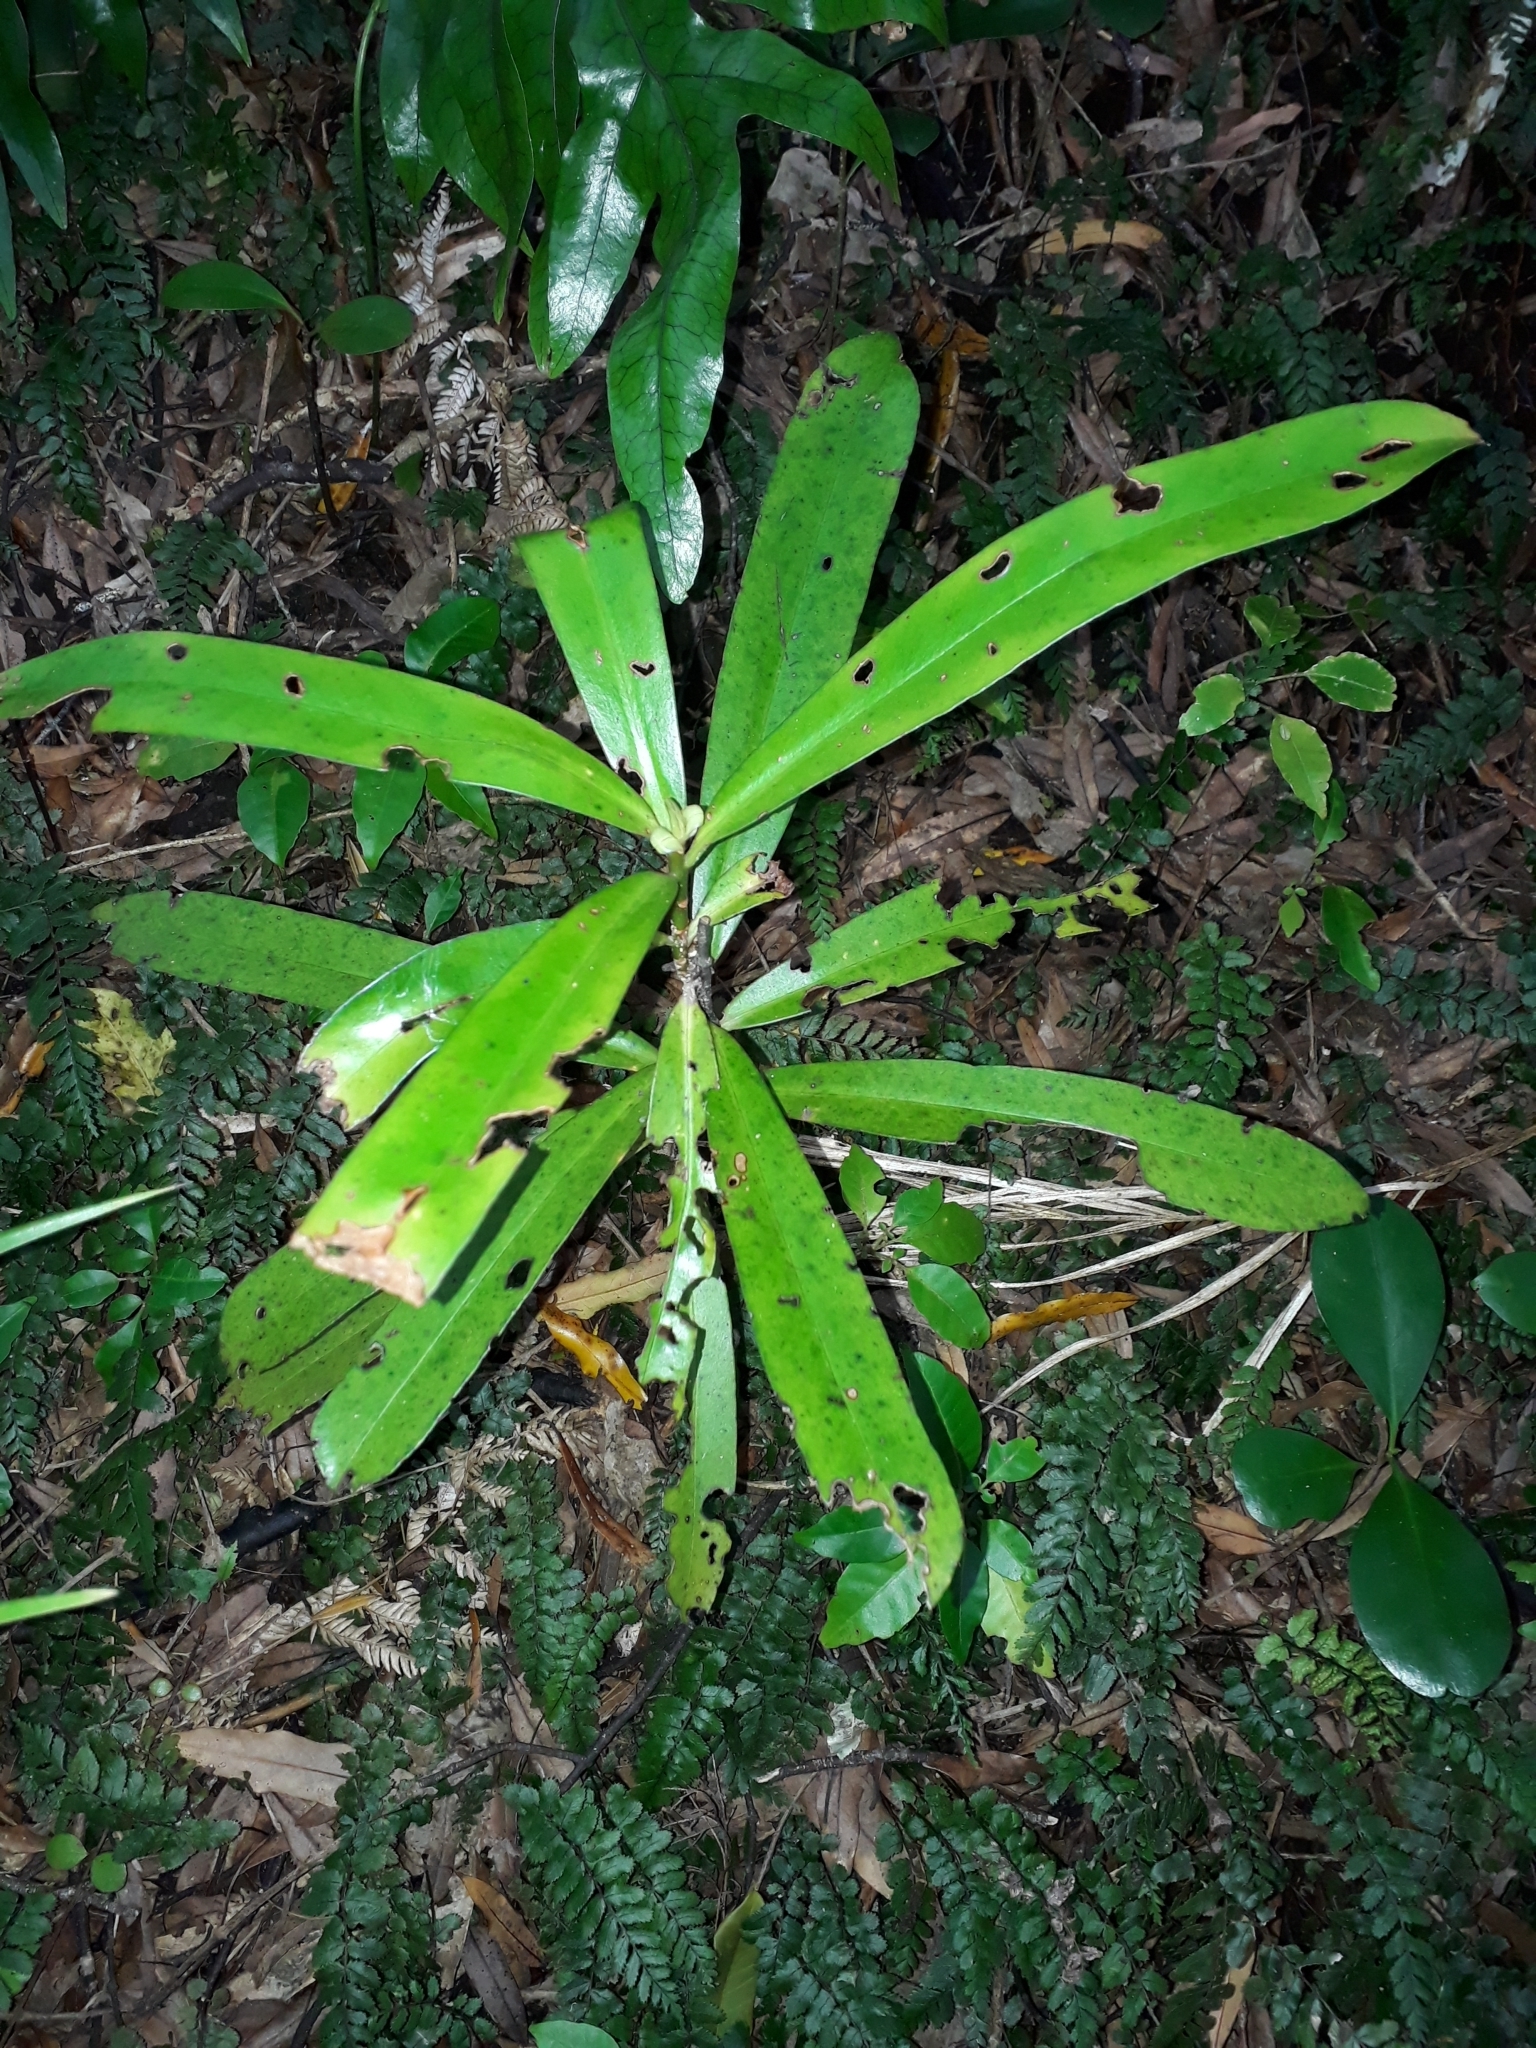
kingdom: Plantae
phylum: Tracheophyta
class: Magnoliopsida
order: Ericales
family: Primulaceae
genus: Myrsine
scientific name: Myrsine salicina
